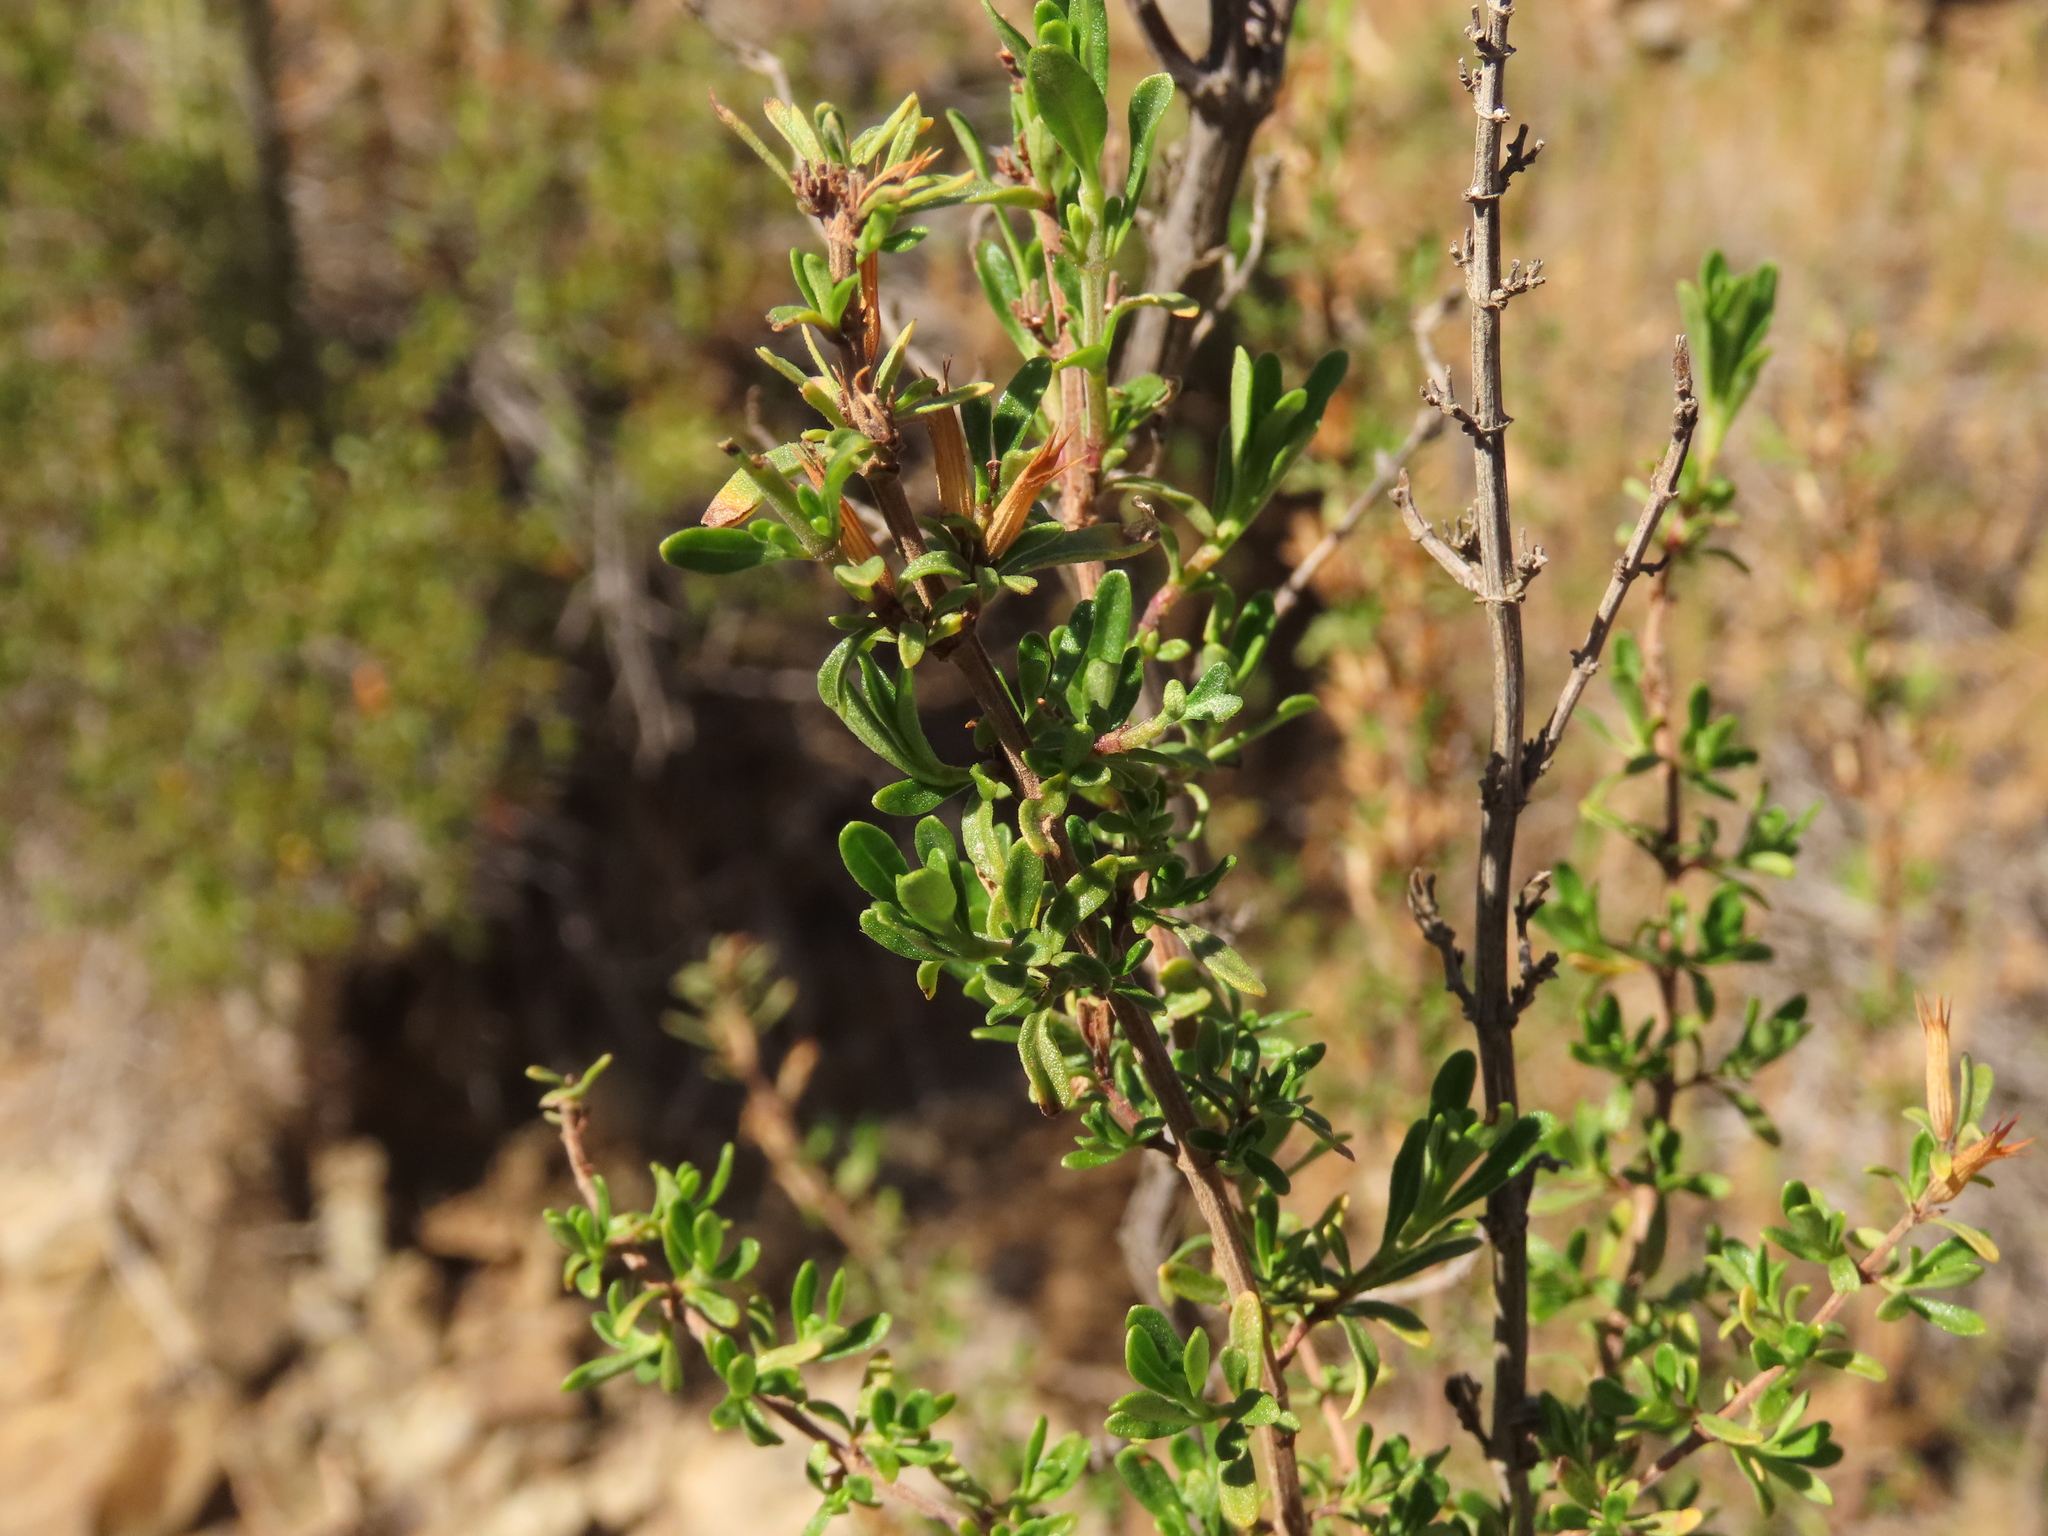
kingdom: Plantae
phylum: Tracheophyta
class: Magnoliopsida
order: Lamiales
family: Lamiaceae
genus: Clinopodium
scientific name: Clinopodium chilense
